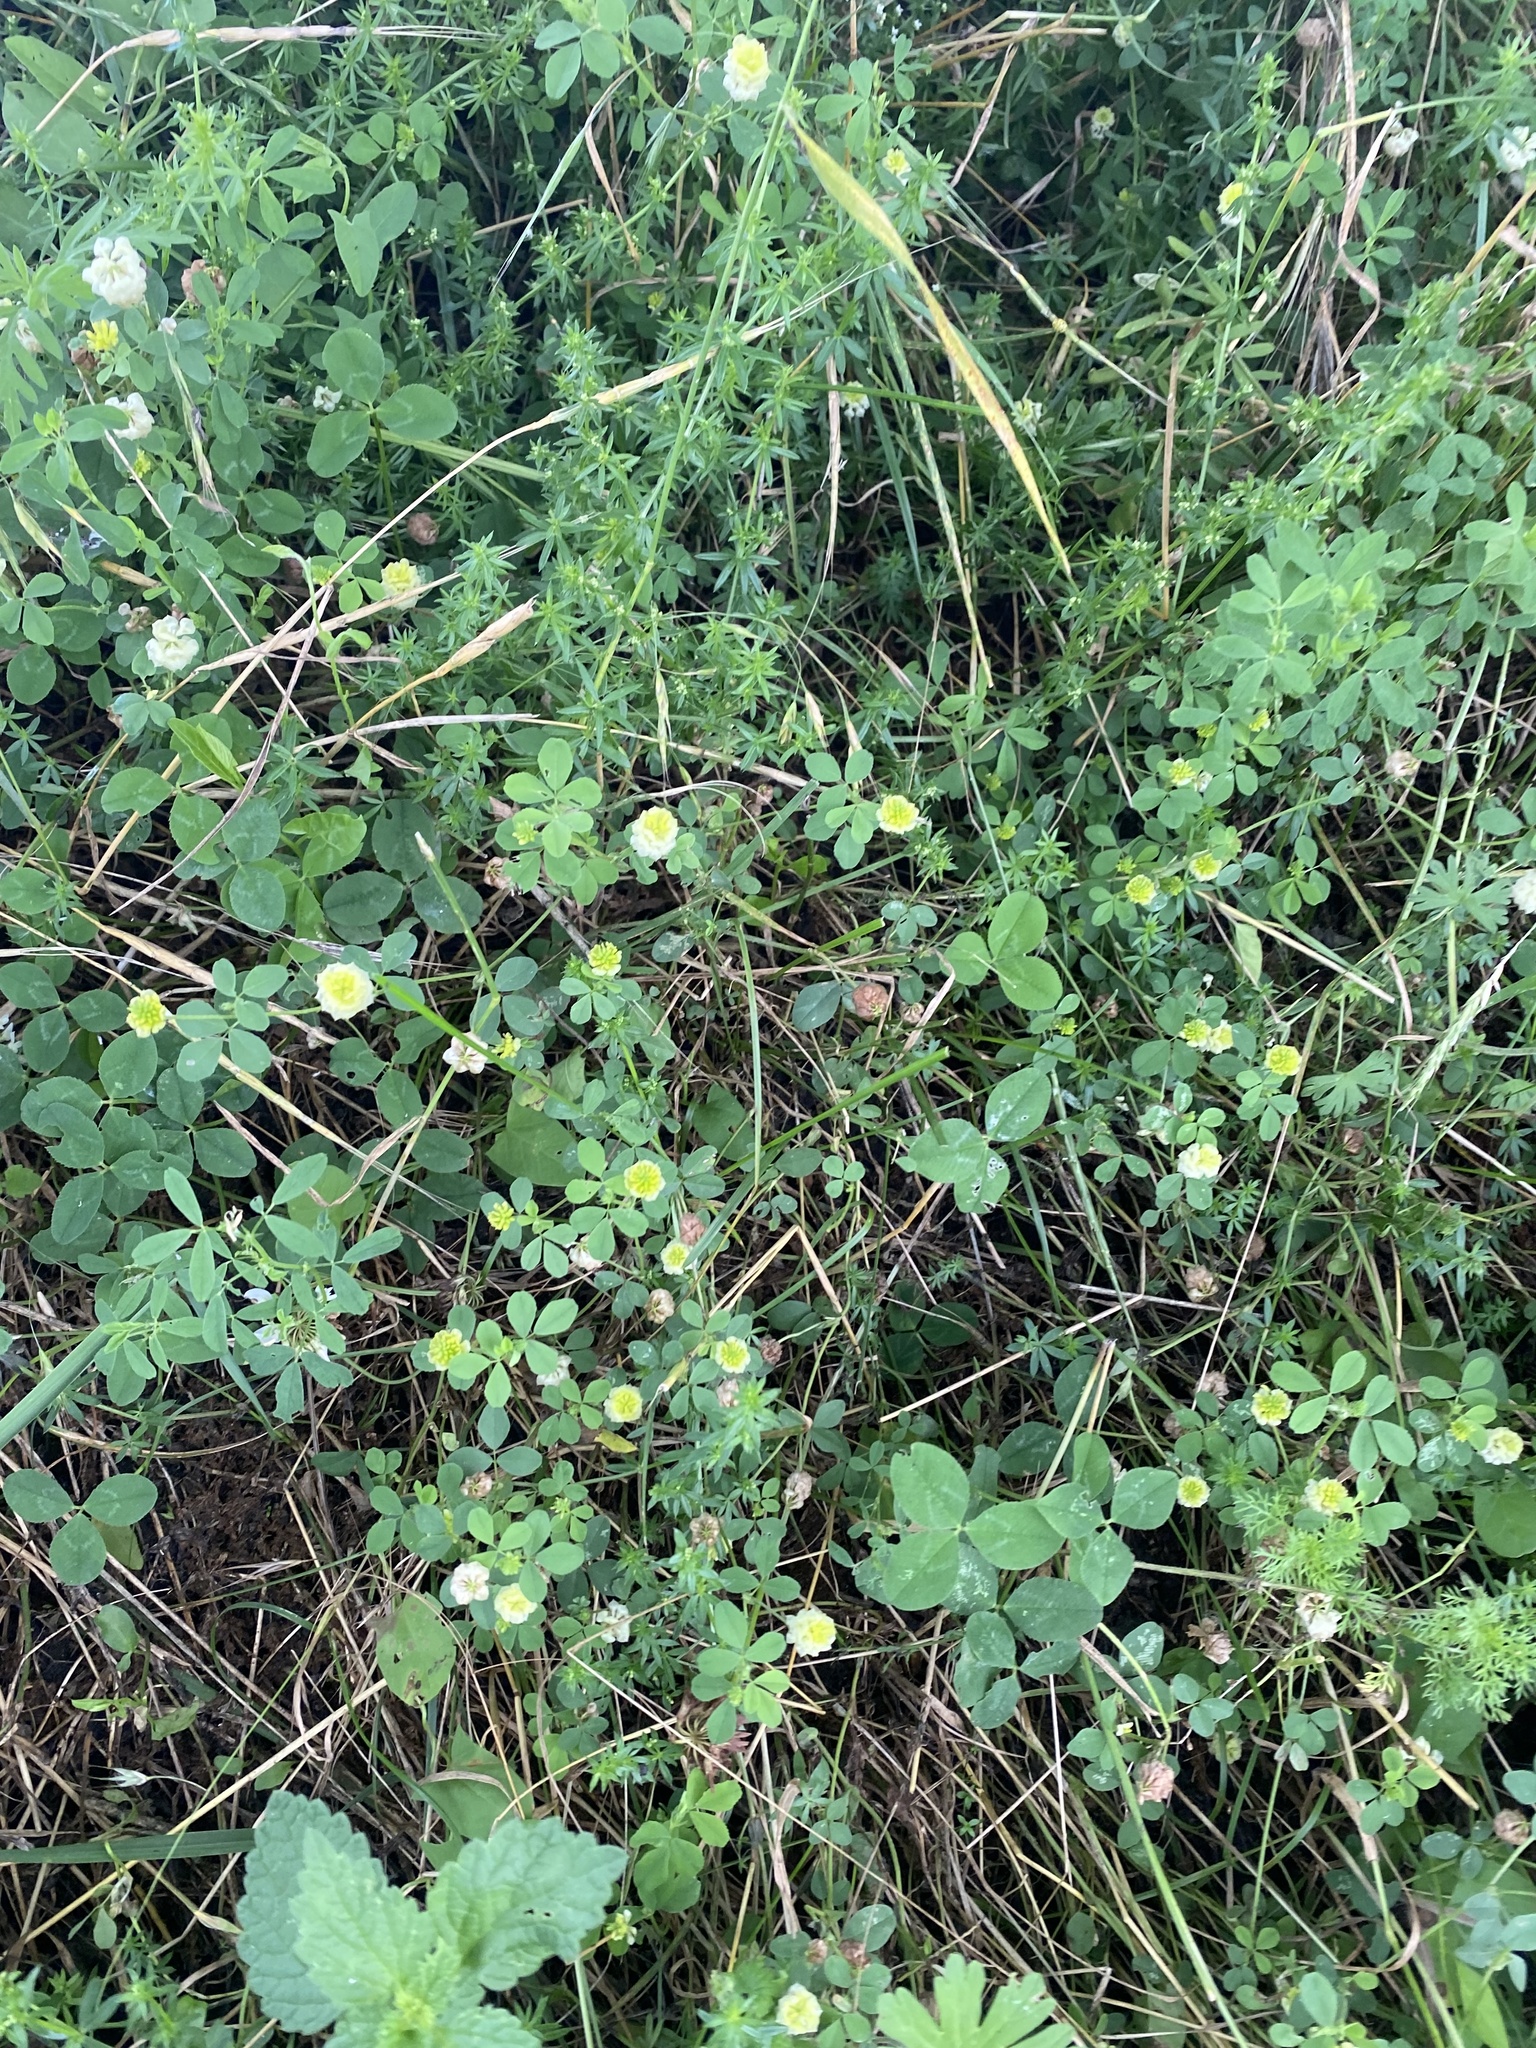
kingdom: Plantae
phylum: Tracheophyta
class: Magnoliopsida
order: Fabales
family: Fabaceae
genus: Trifolium
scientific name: Trifolium campestre
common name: Field clover
